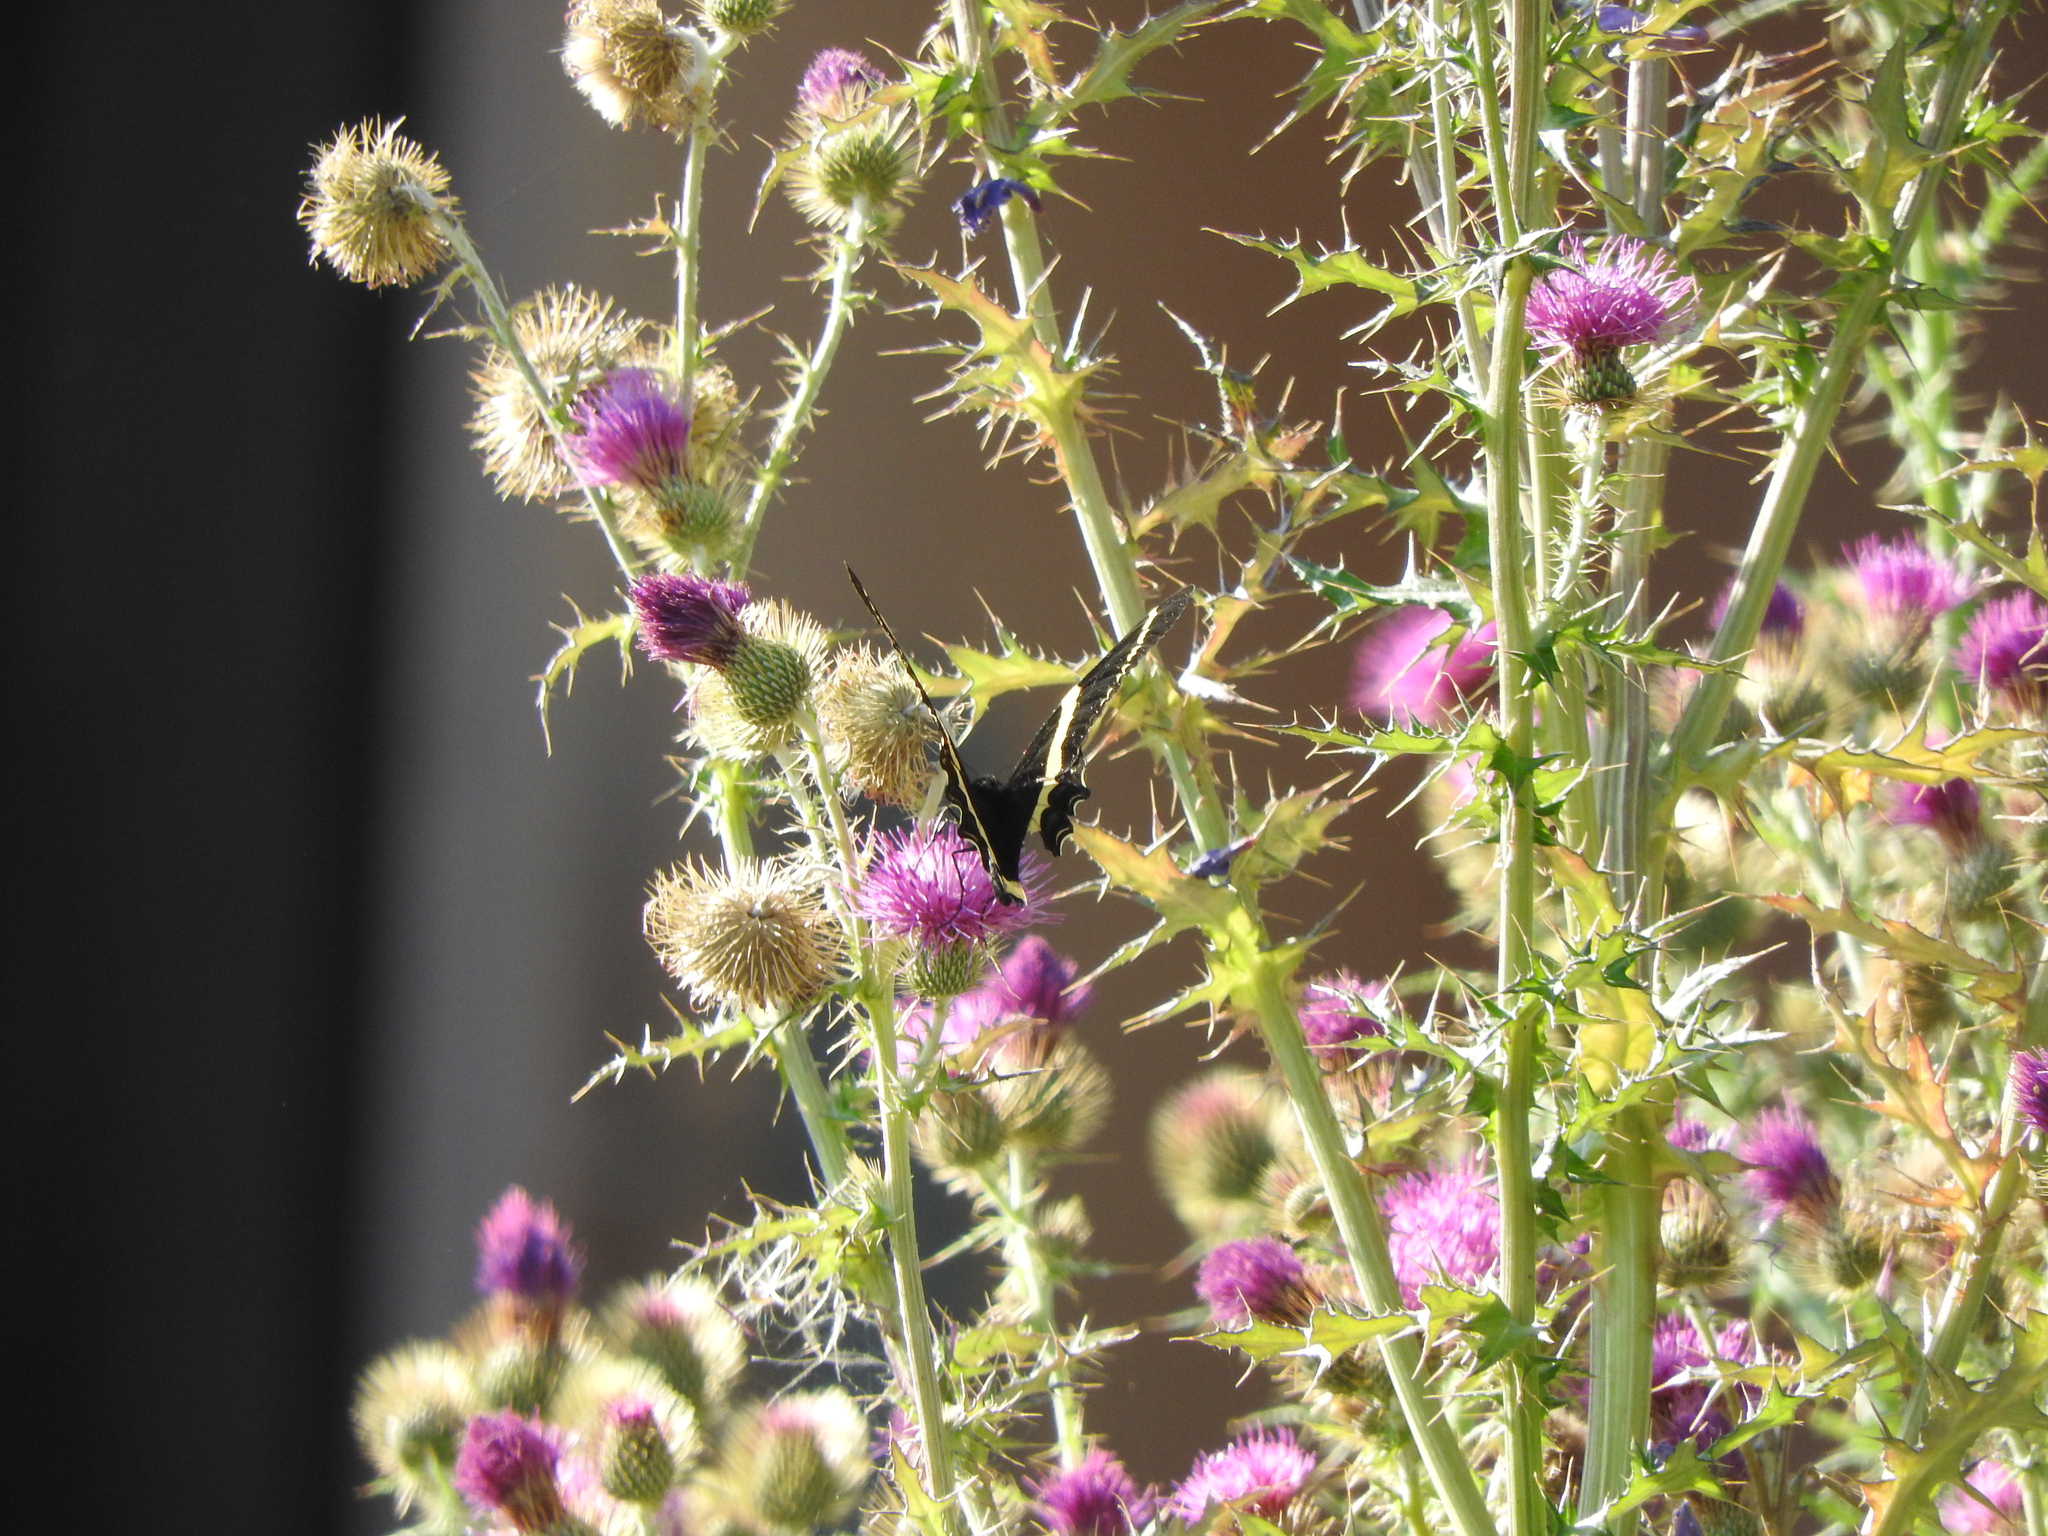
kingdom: Animalia
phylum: Arthropoda
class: Insecta
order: Lepidoptera
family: Papilionidae
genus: Papilio
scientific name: Papilio garamas
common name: Magnificent swallowtail
